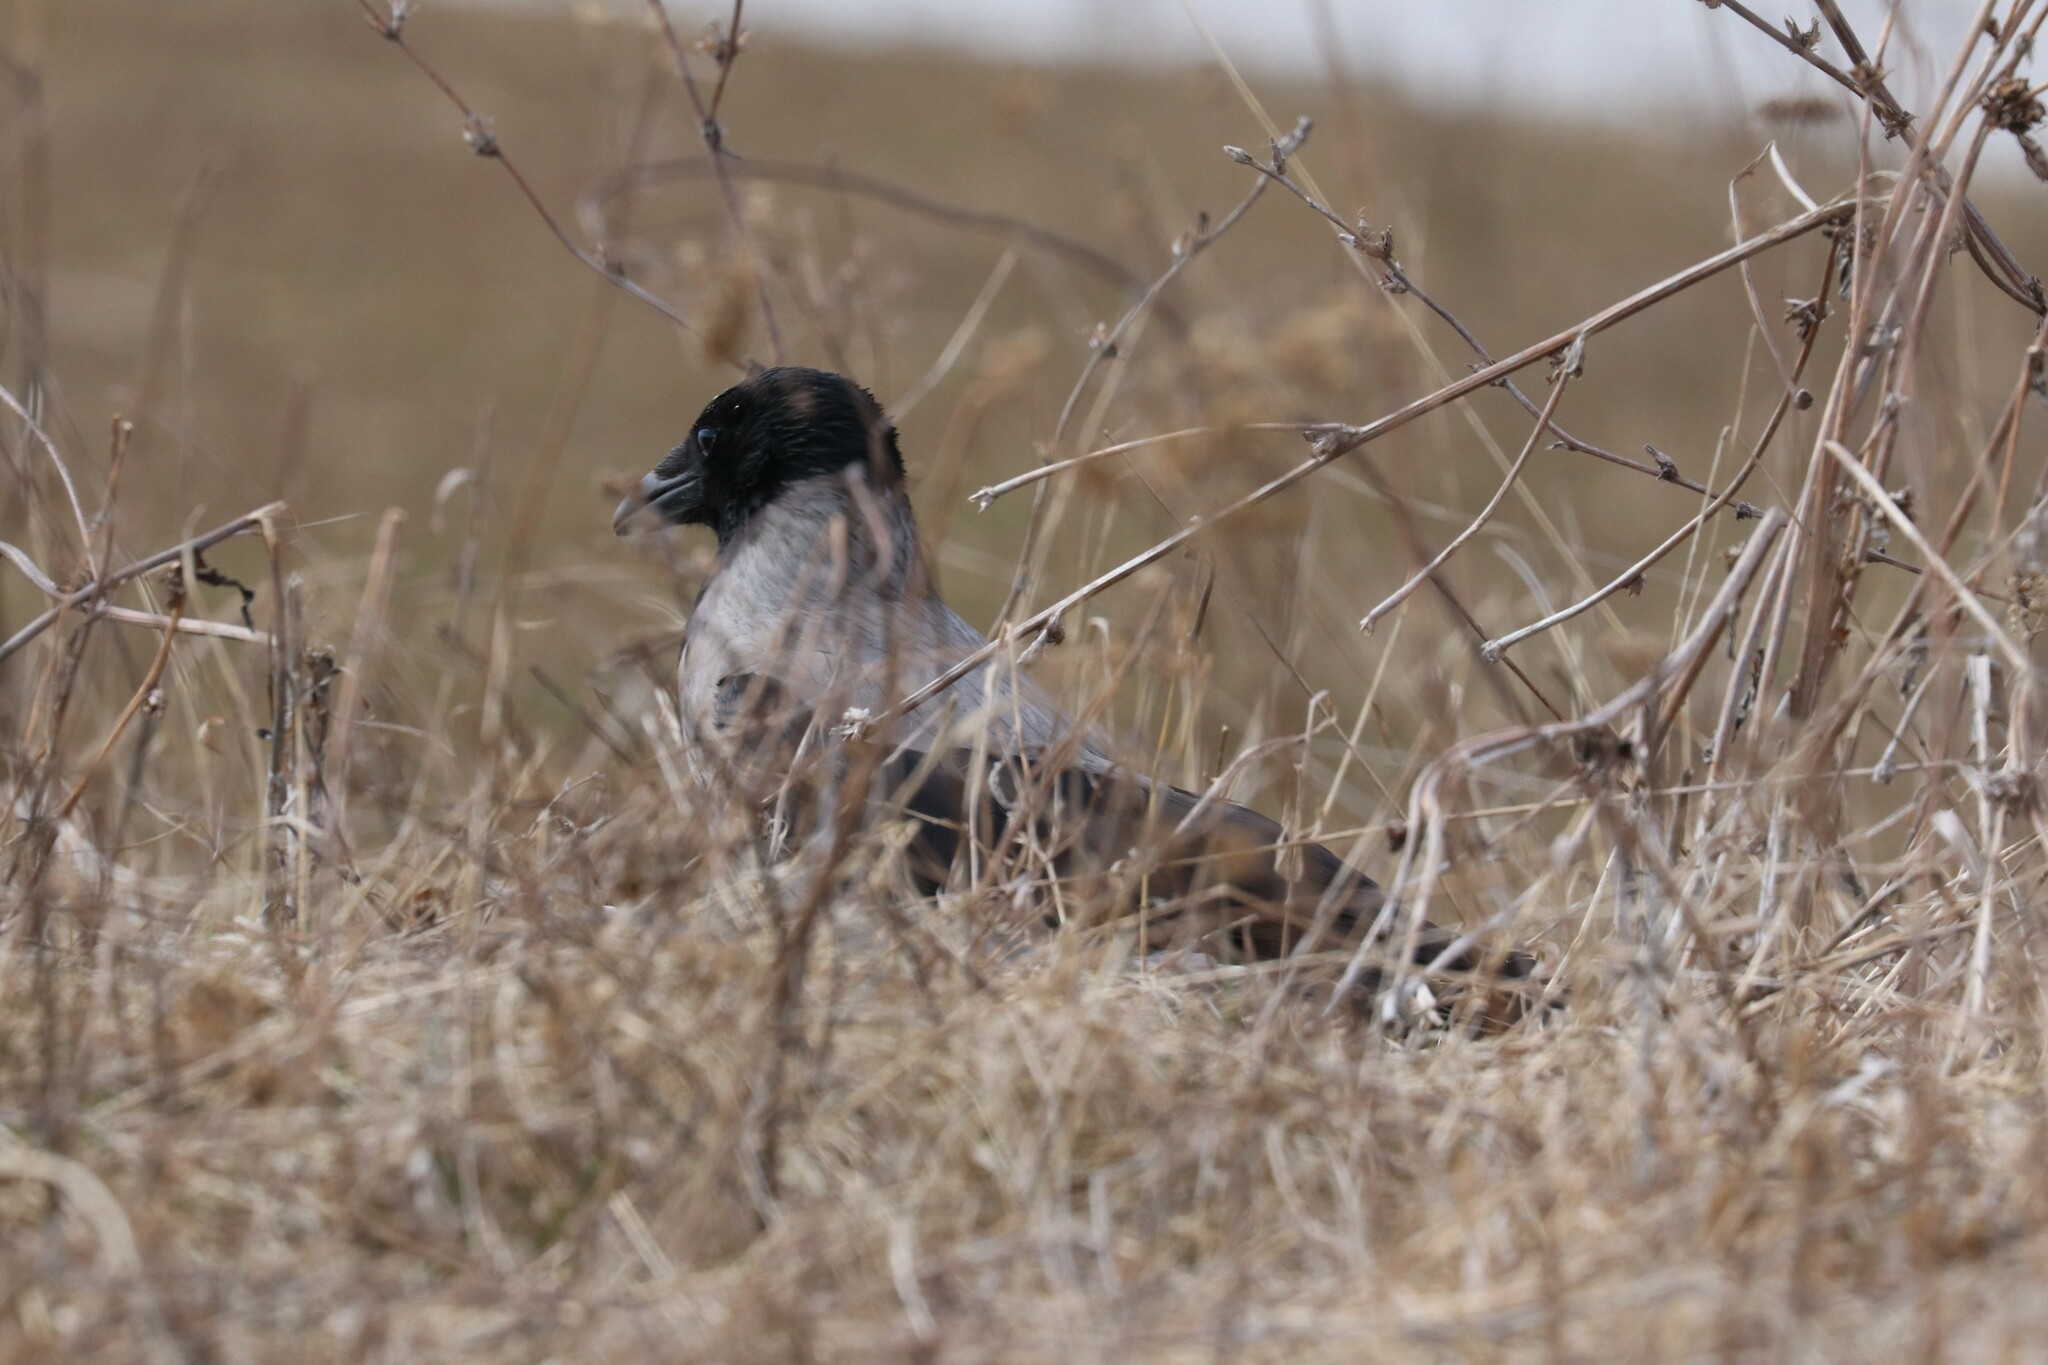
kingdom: Animalia
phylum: Chordata
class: Aves
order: Passeriformes
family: Corvidae
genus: Corvus
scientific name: Corvus cornix
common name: Hooded crow
